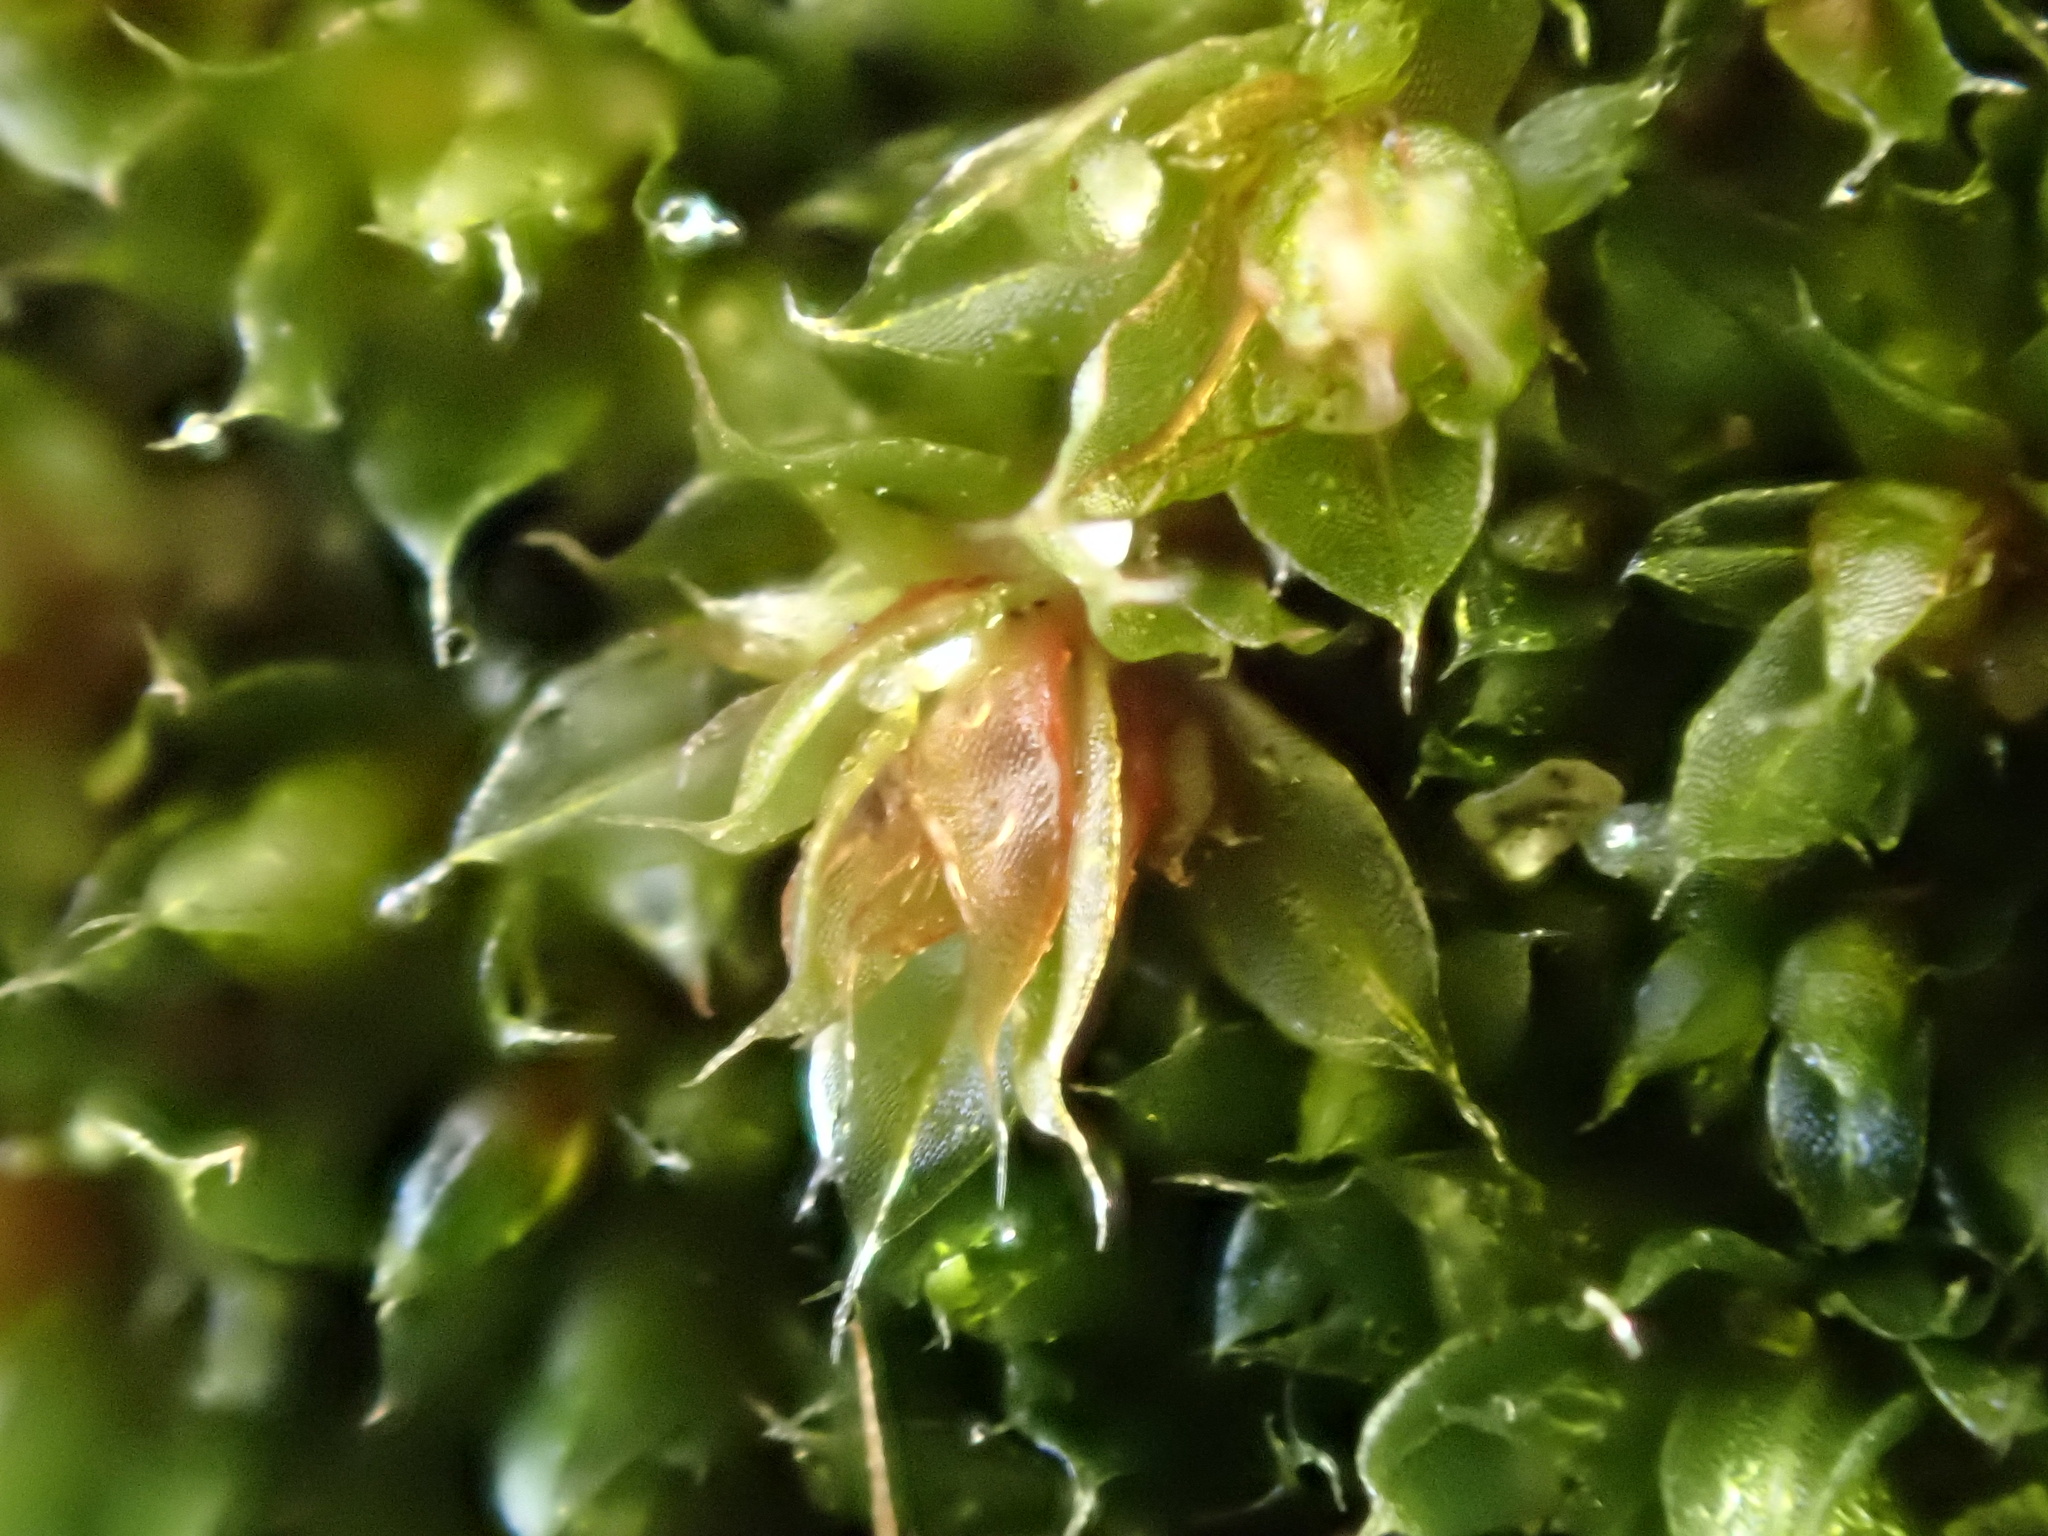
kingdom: Plantae
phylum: Bryophyta
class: Bryopsida
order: Bryales
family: Bryaceae
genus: Rosulabryum
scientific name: Rosulabryum capillare
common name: Capillary thread-moss
